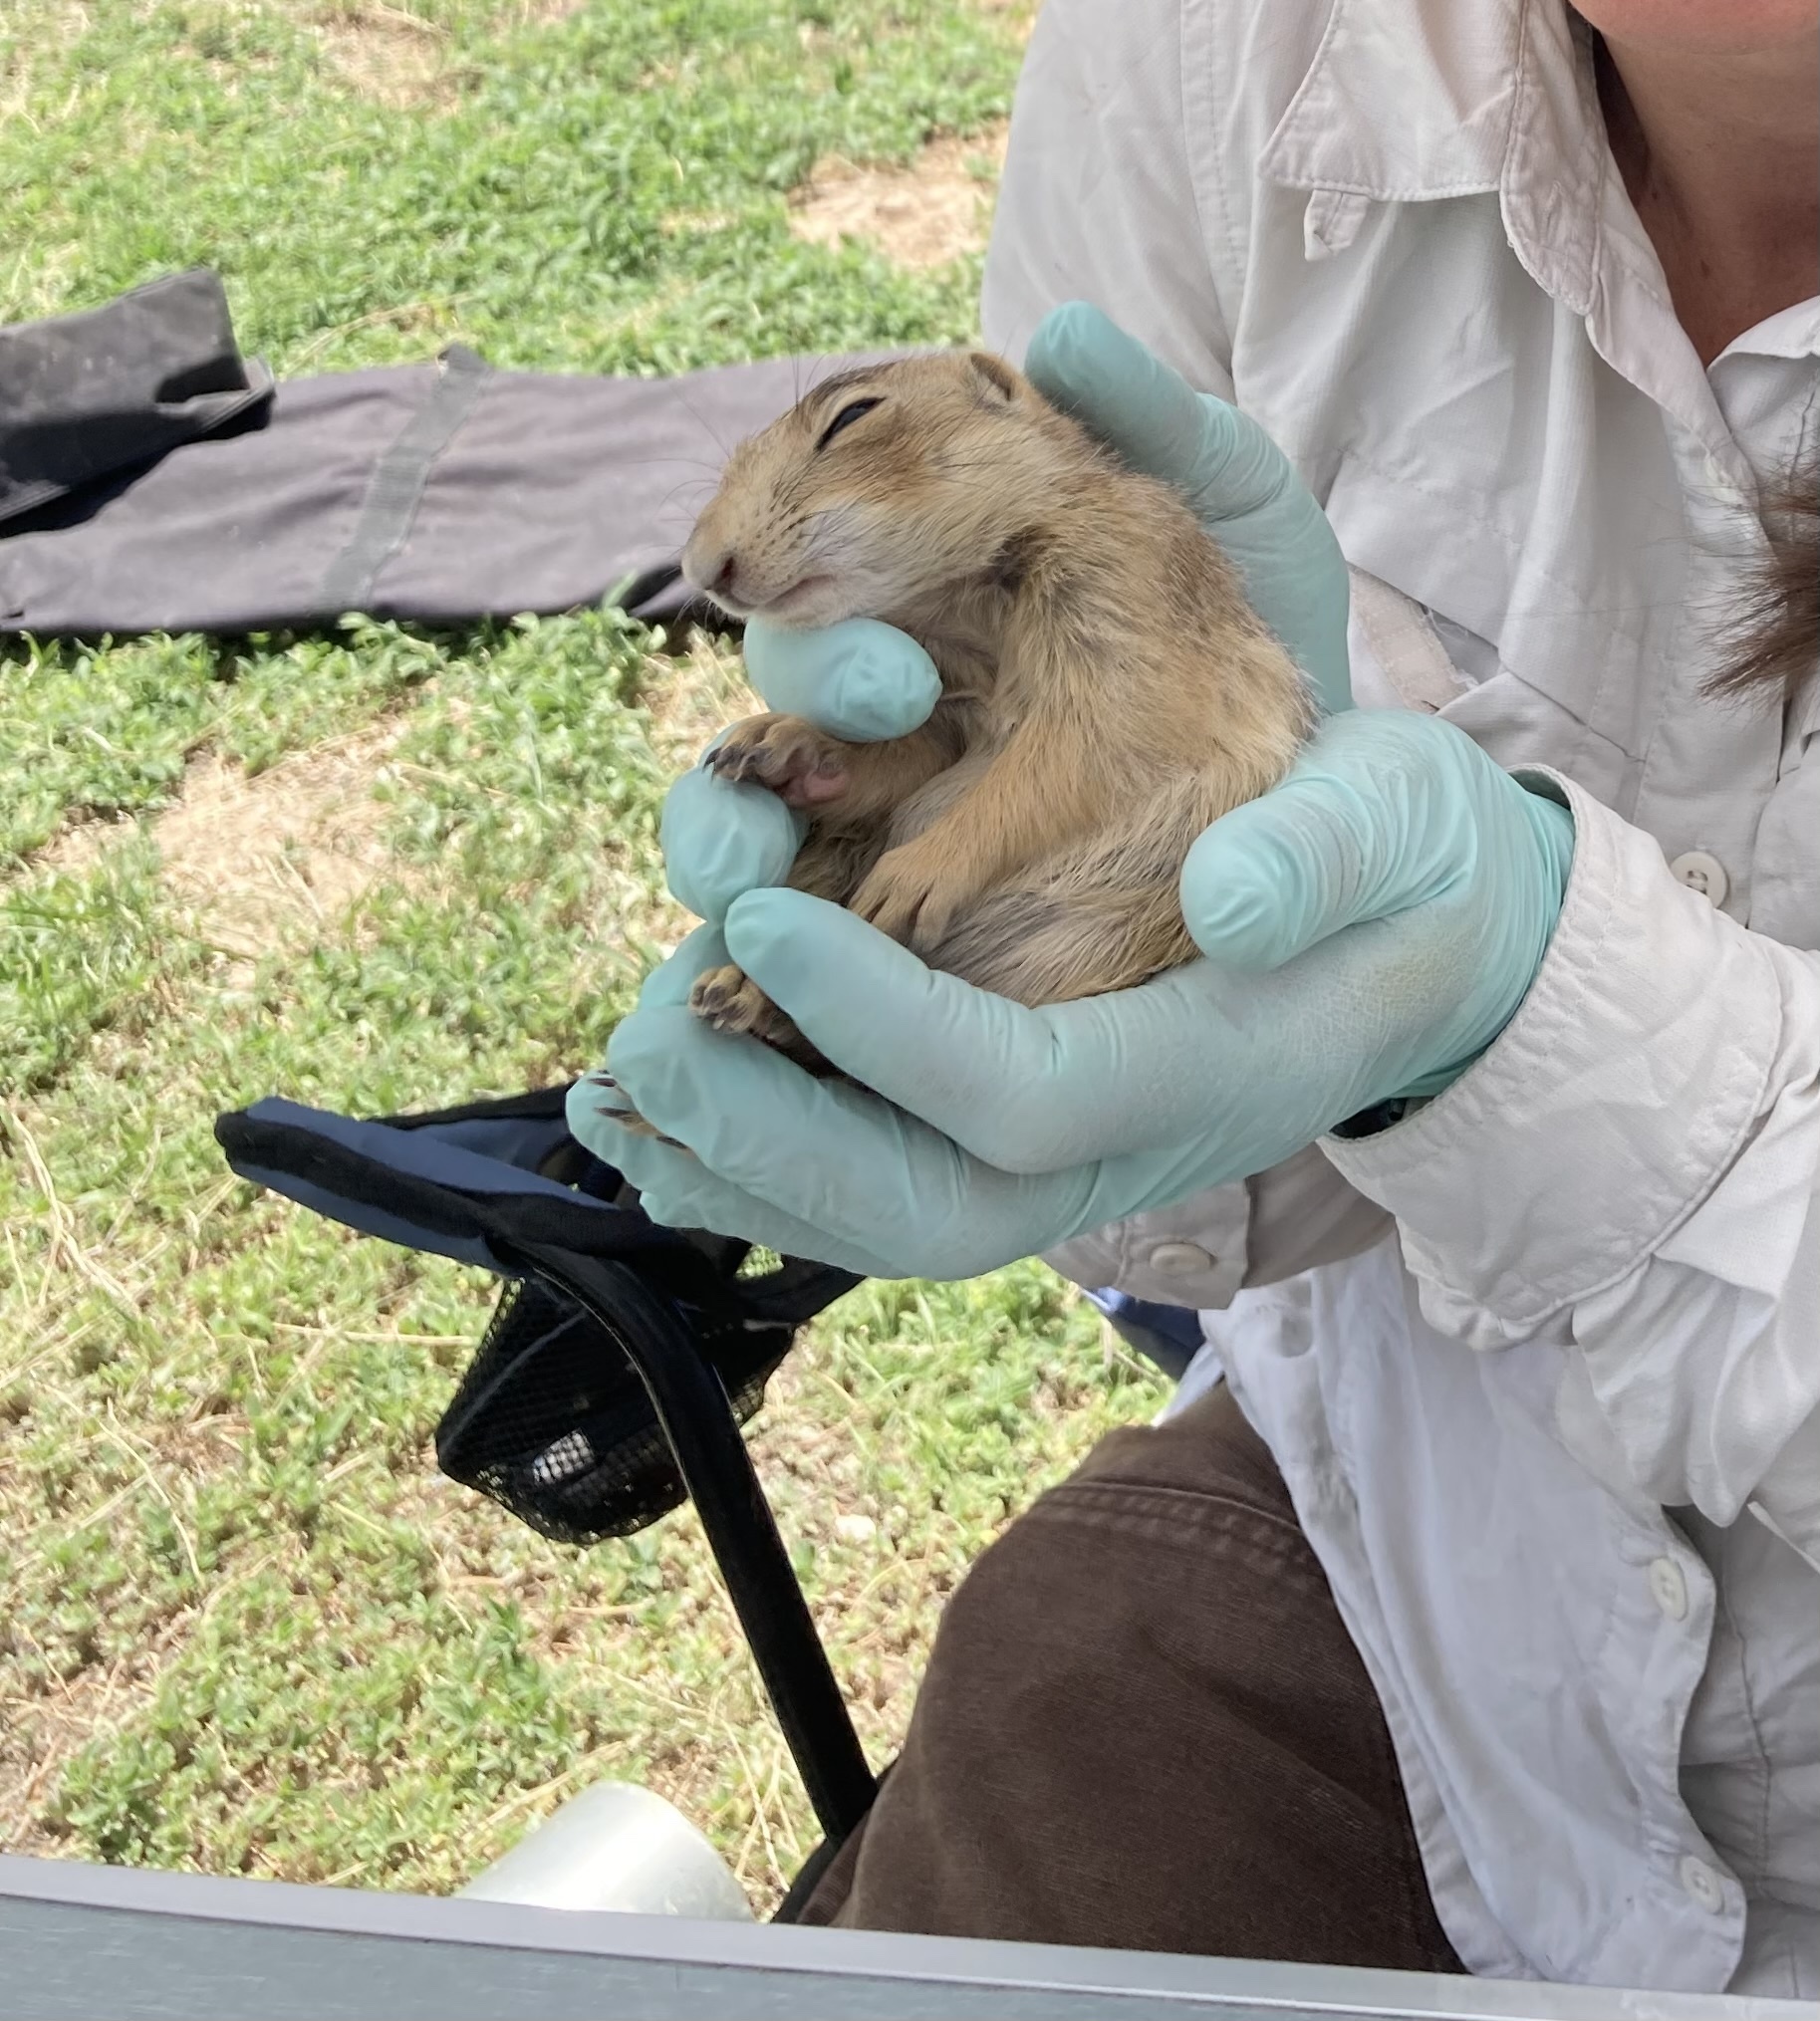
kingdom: Animalia
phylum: Chordata
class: Mammalia
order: Rodentia
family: Sciuridae
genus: Cynomys
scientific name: Cynomys gunnisoni
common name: Gunnison's prairie dog
